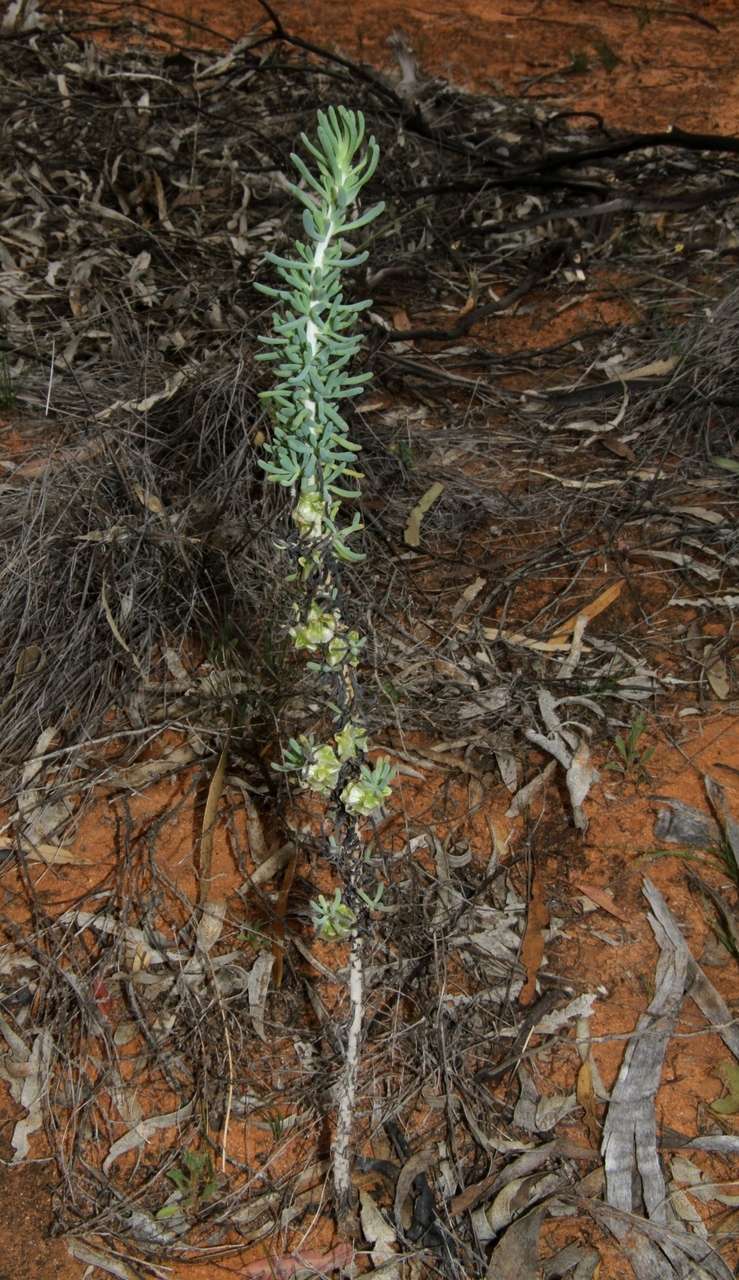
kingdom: Plantae
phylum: Tracheophyta
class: Magnoliopsida
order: Caryophyllales
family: Amaranthaceae
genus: Maireana
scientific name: Maireana pentatropis
